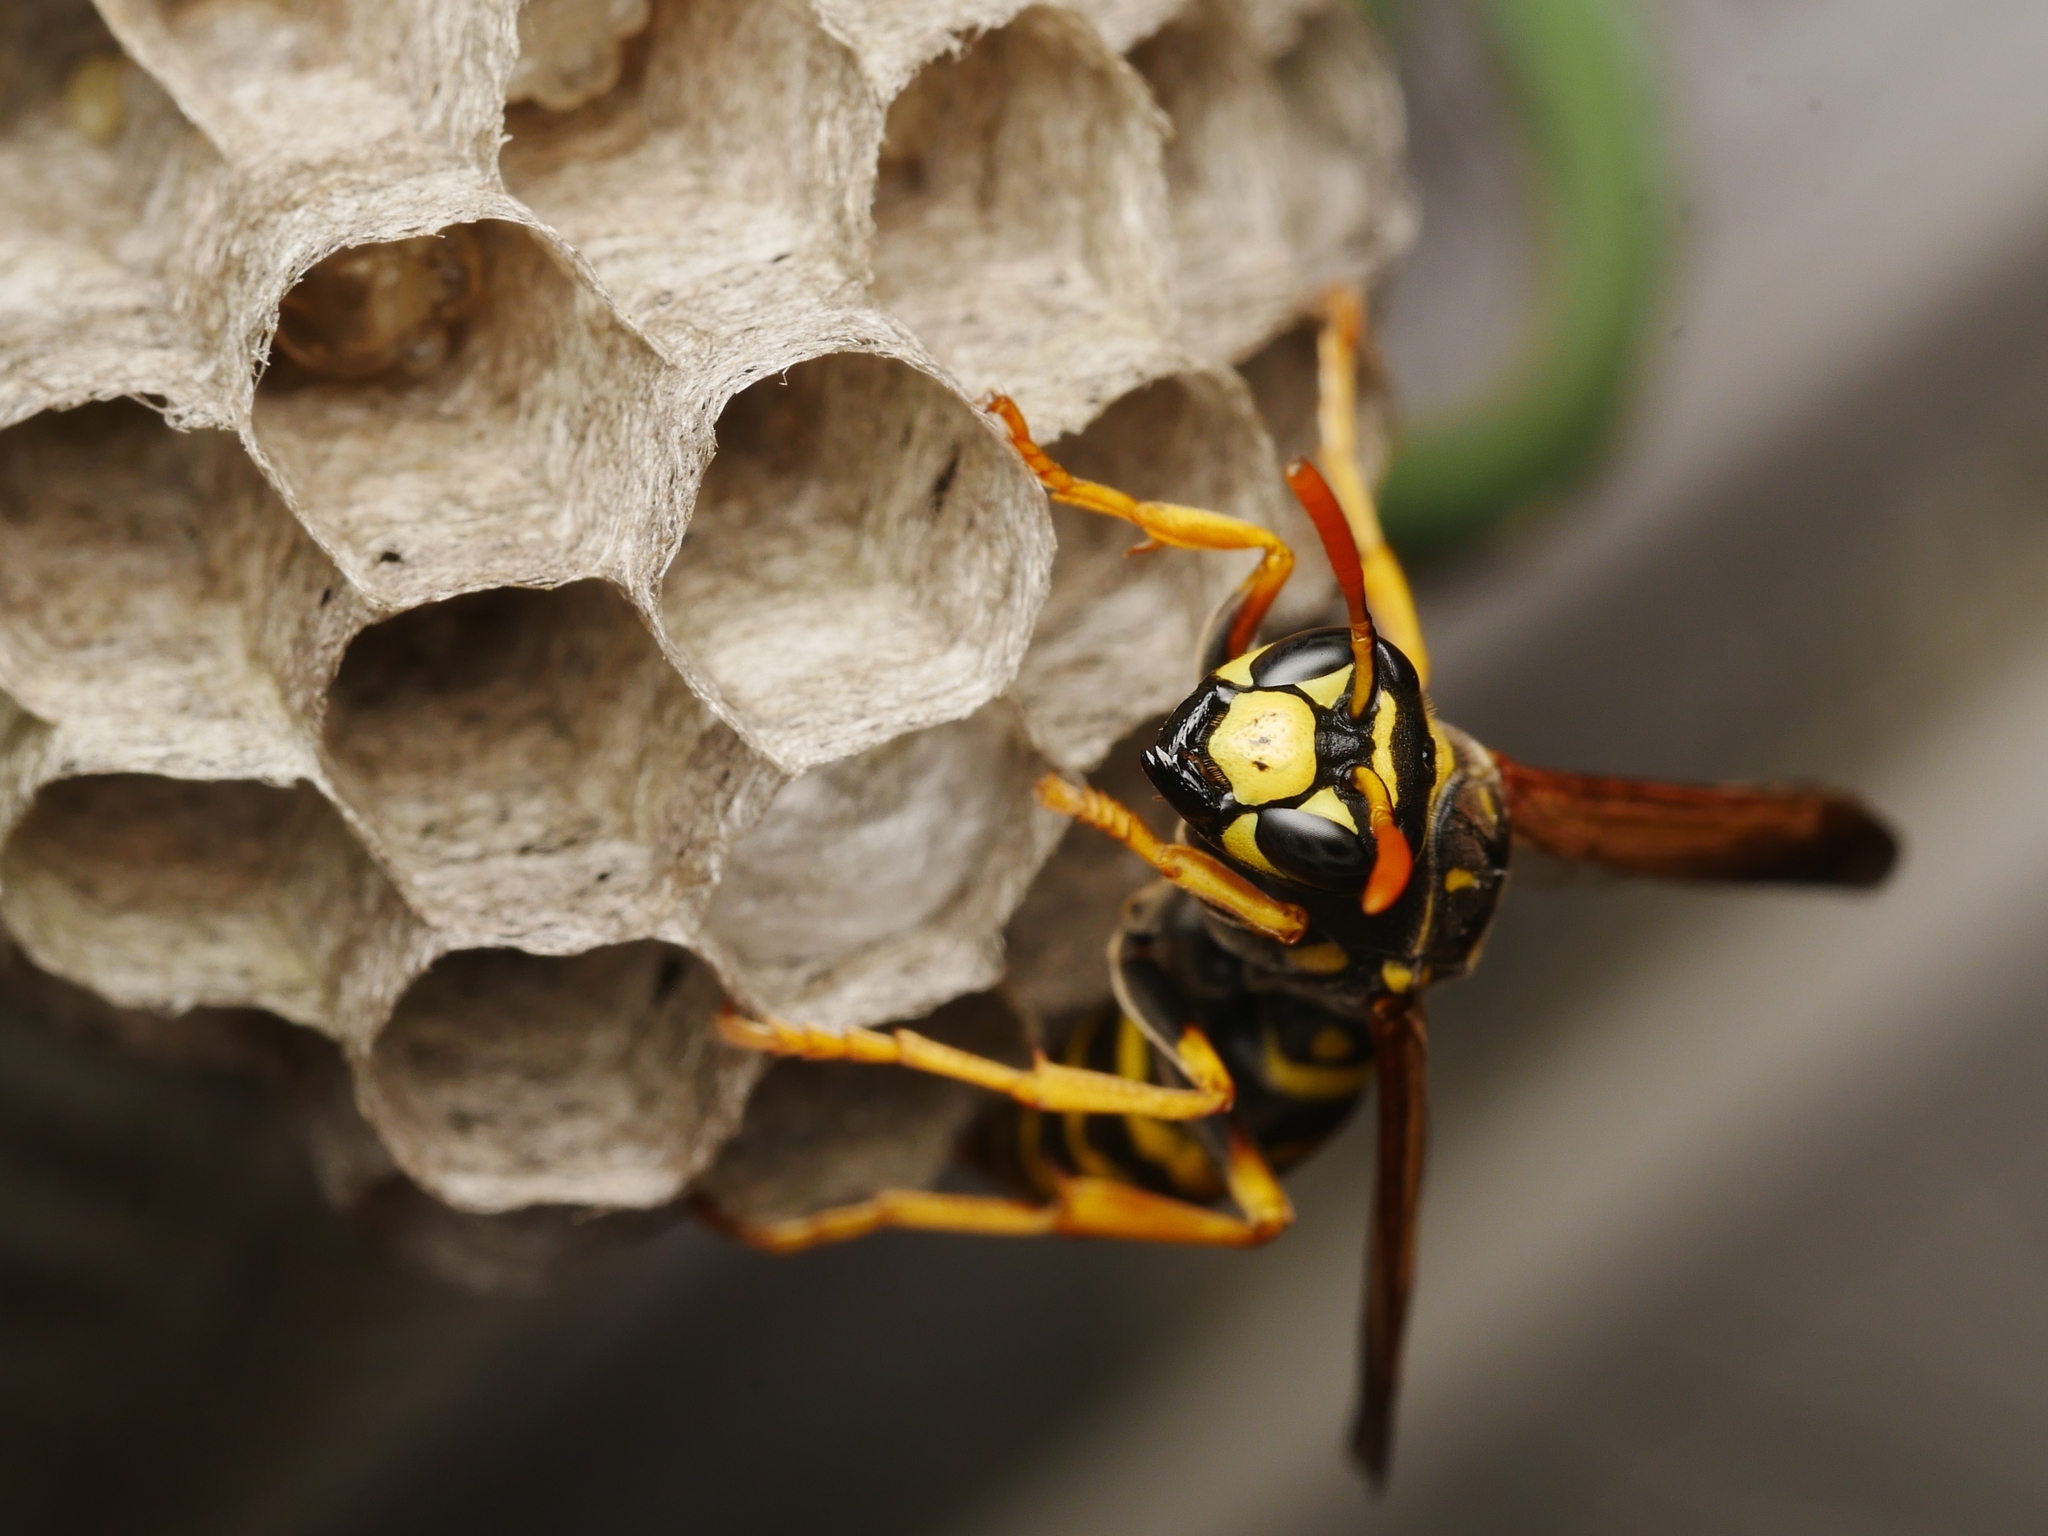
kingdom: Animalia
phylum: Arthropoda
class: Insecta
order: Hymenoptera
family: Eumenidae
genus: Polistes
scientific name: Polistes dominula
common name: Paper wasp
